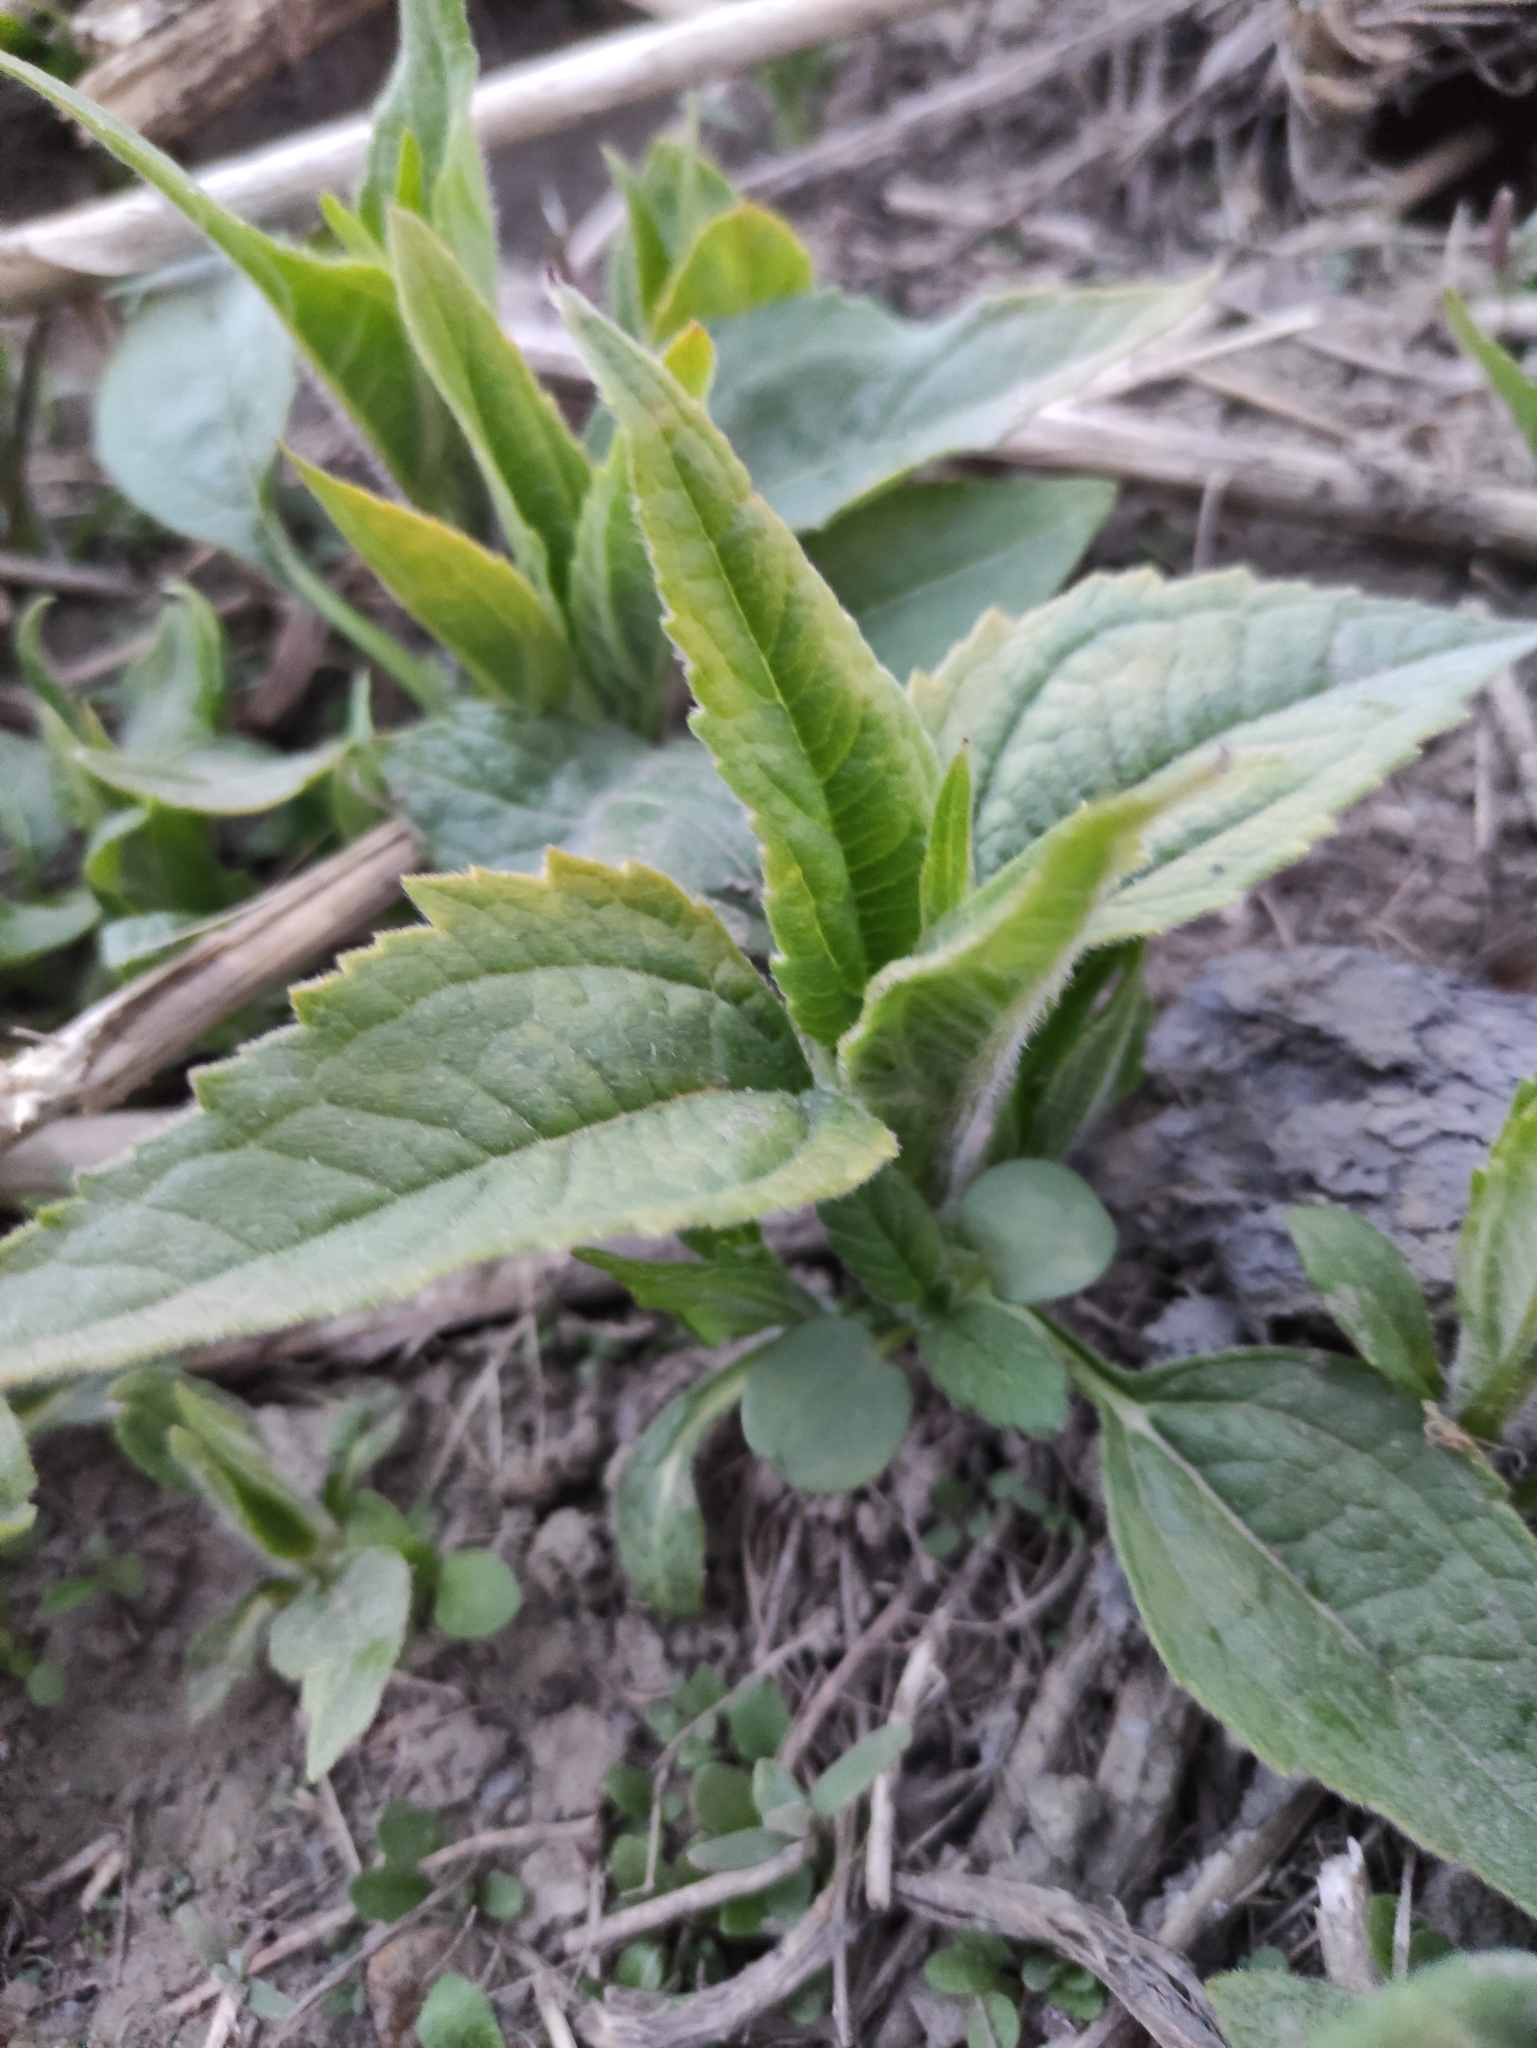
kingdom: Plantae
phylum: Tracheophyta
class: Magnoliopsida
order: Asterales
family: Asteraceae
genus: Helianthus
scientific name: Helianthus tuberosus
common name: Jerusalem artichoke
